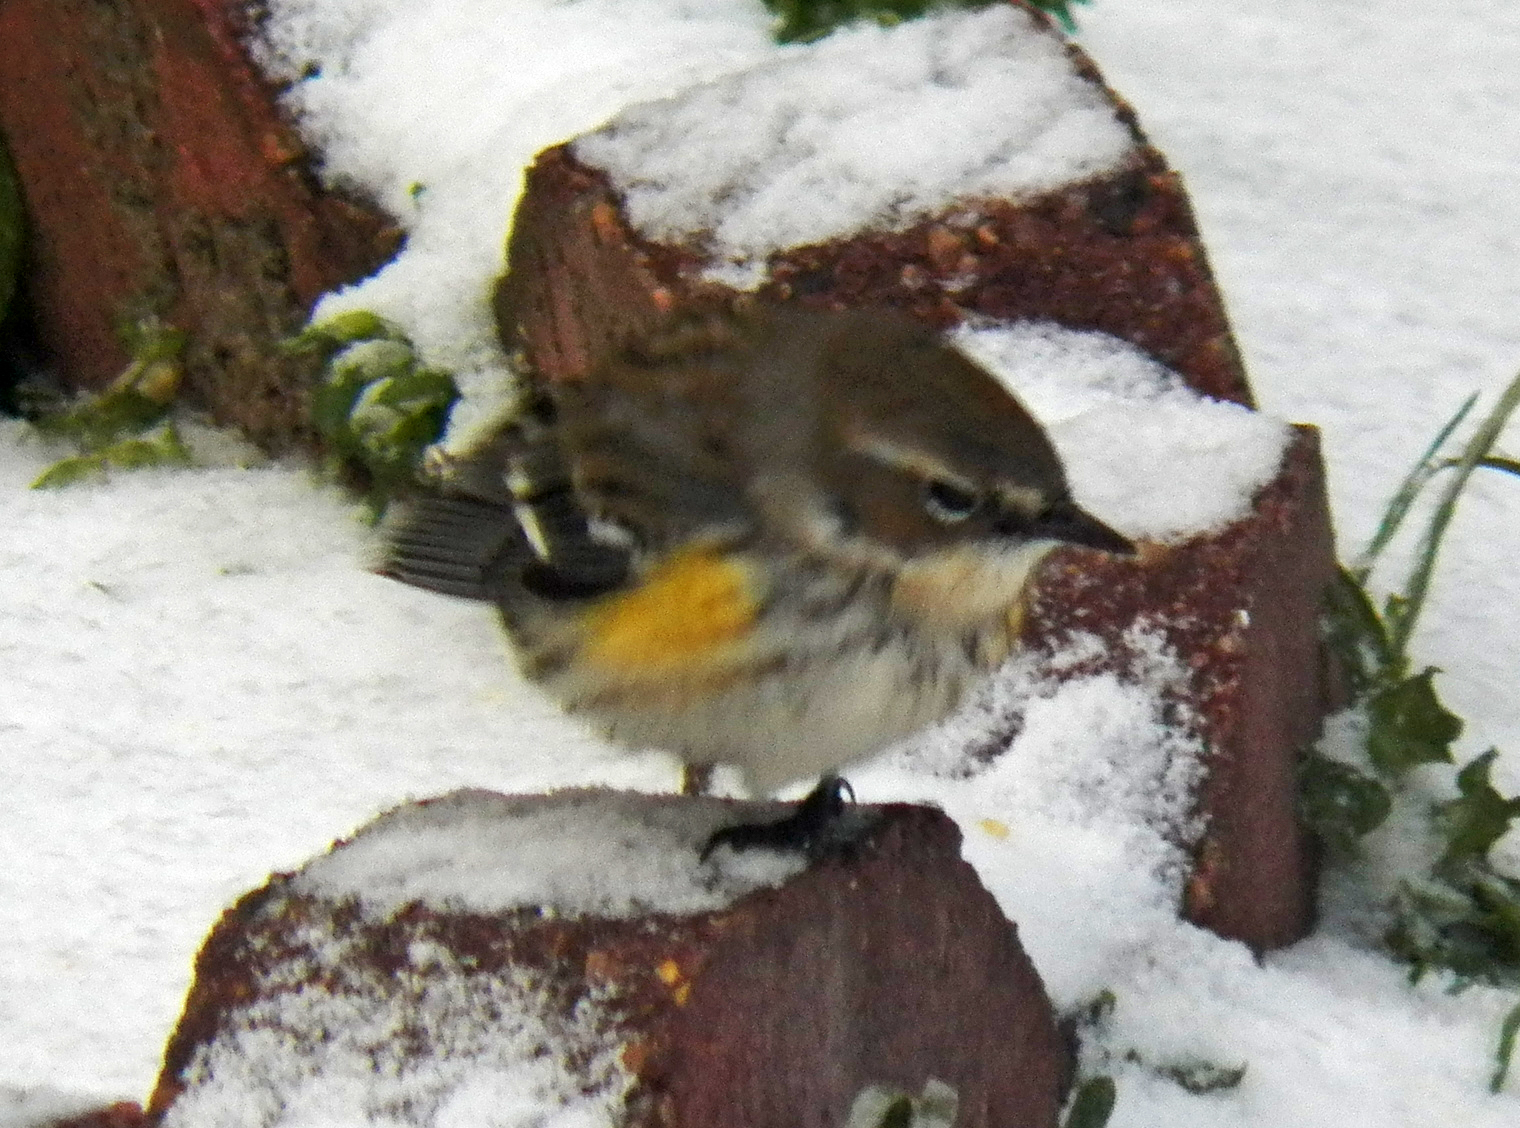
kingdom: Animalia
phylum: Chordata
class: Aves
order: Passeriformes
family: Parulidae
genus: Setophaga
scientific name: Setophaga coronata
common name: Myrtle warbler
